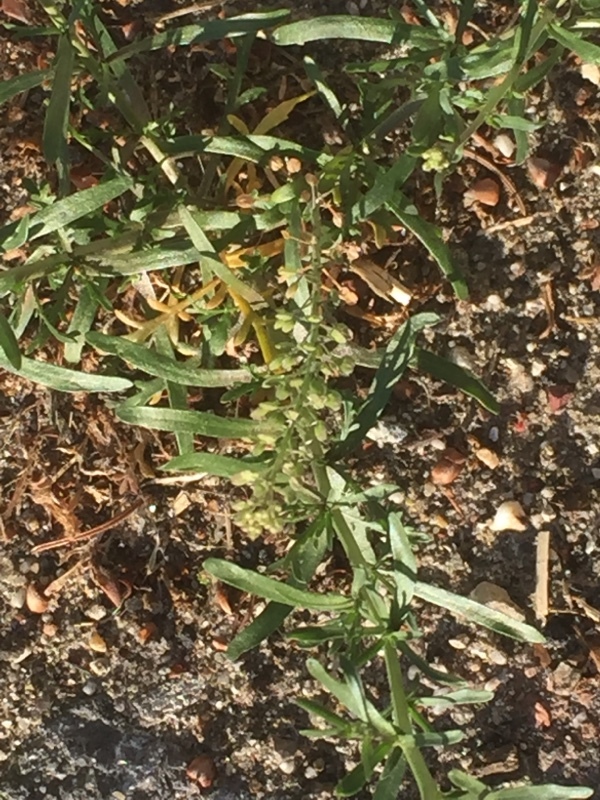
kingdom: Plantae
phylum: Tracheophyta
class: Magnoliopsida
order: Brassicales
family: Brassicaceae
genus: Lepidium
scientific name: Lepidium ruderale
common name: Narrow-leaved pepperwort
